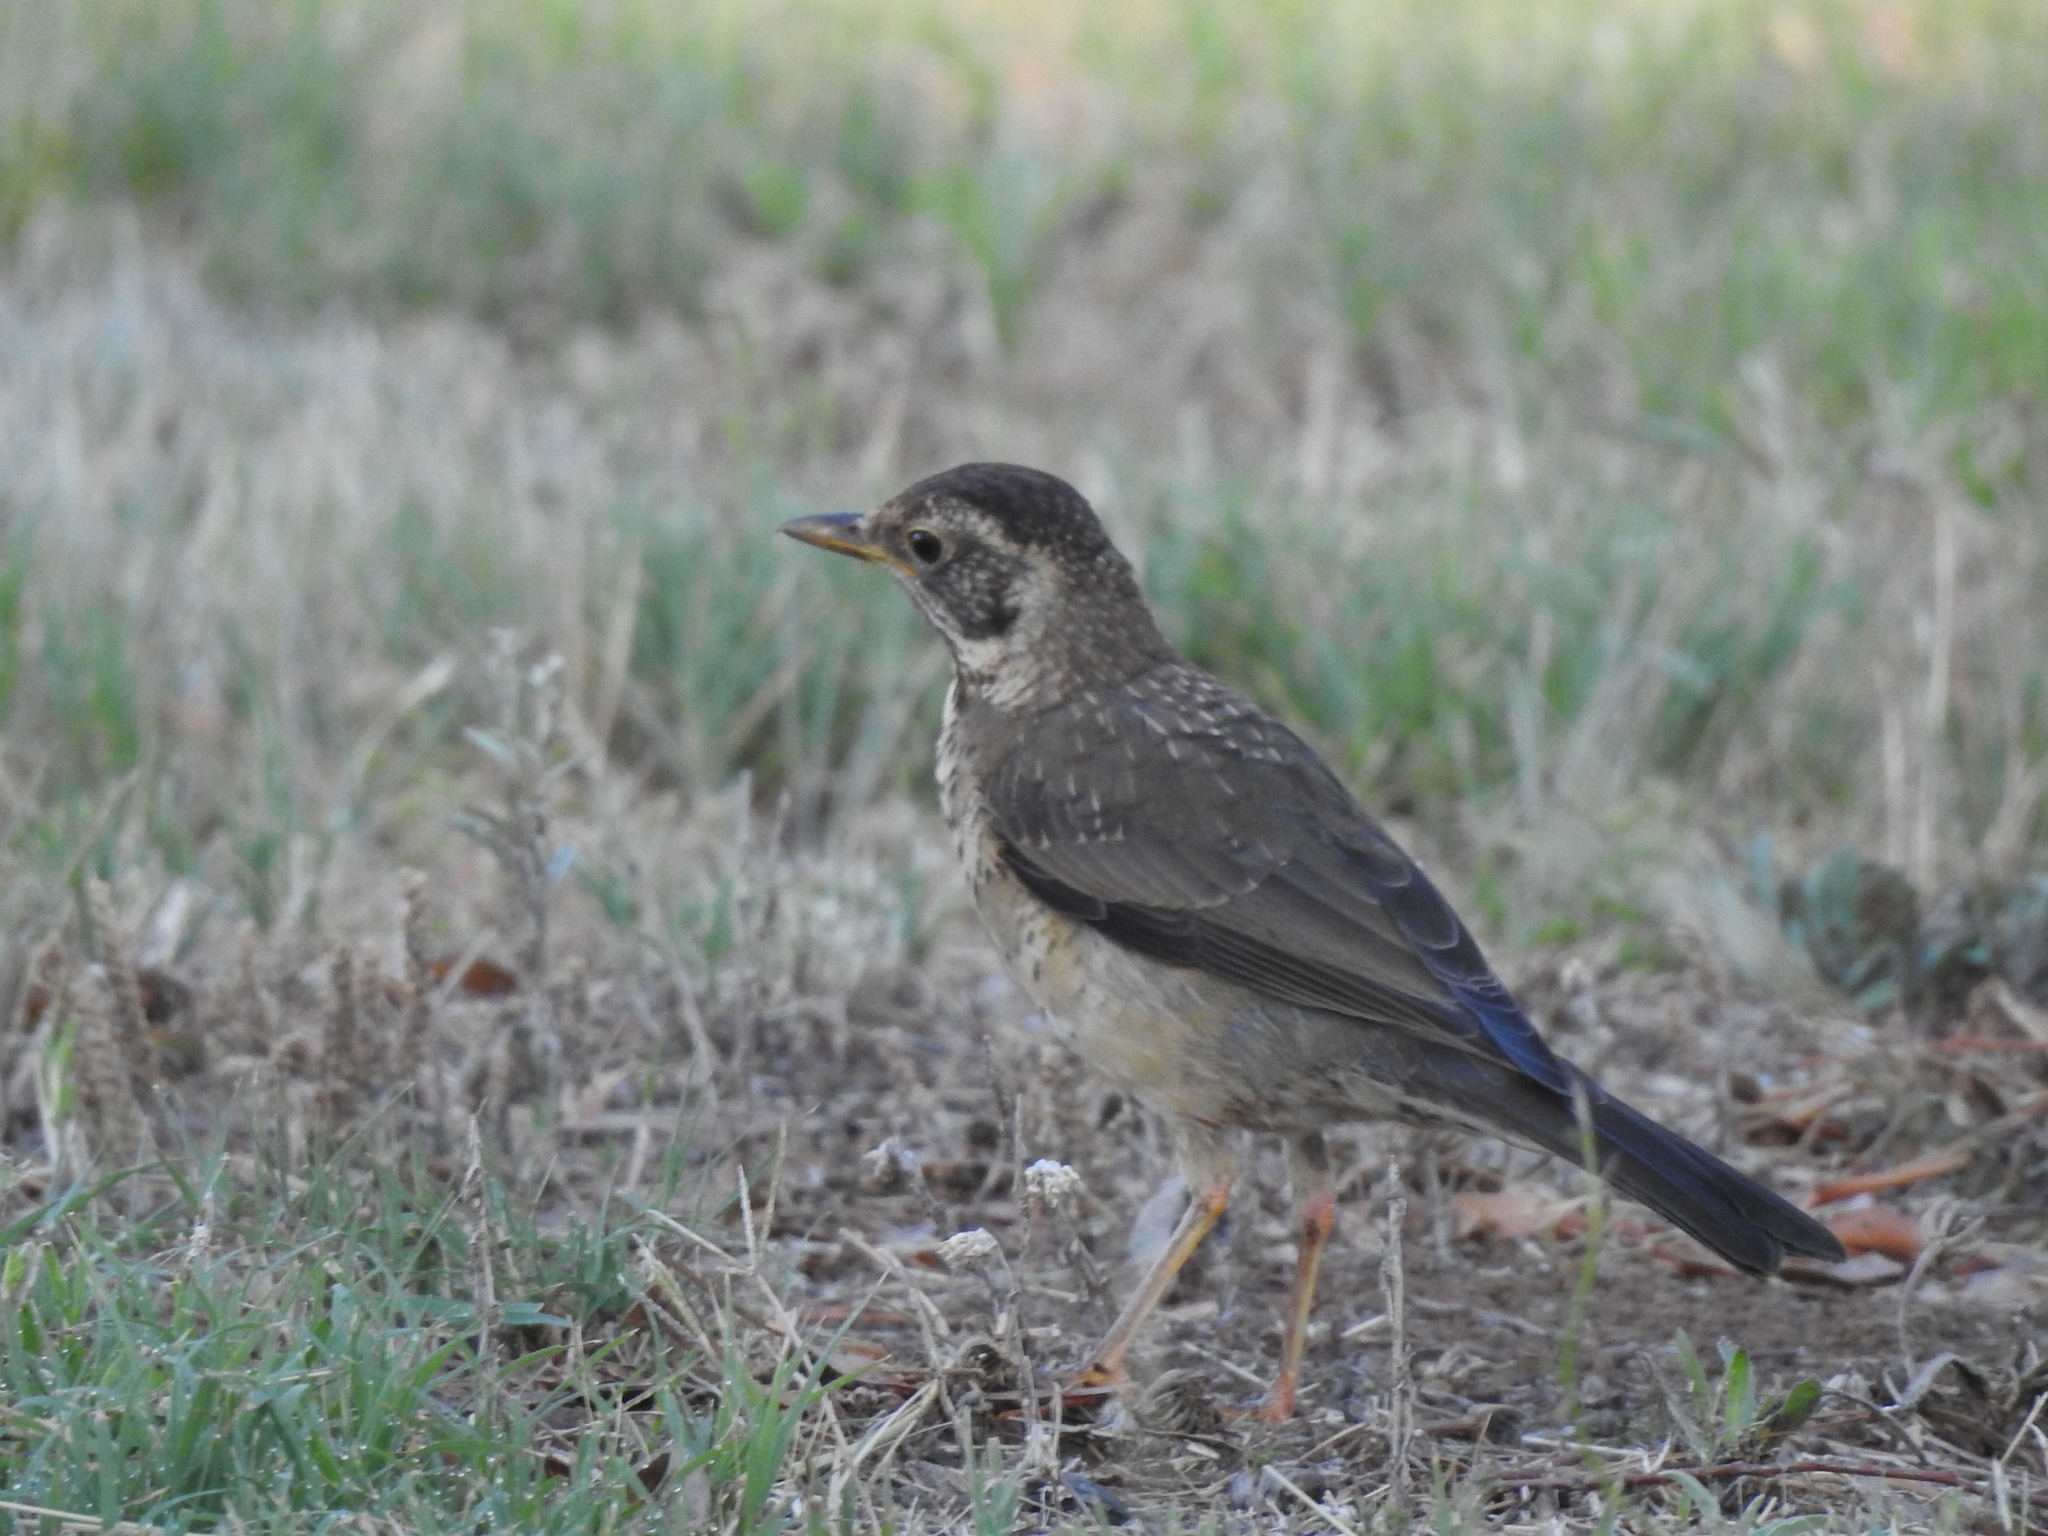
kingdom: Animalia
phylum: Chordata
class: Aves
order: Passeriformes
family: Turdidae
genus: Turdus
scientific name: Turdus falcklandii
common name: Austral thrush
